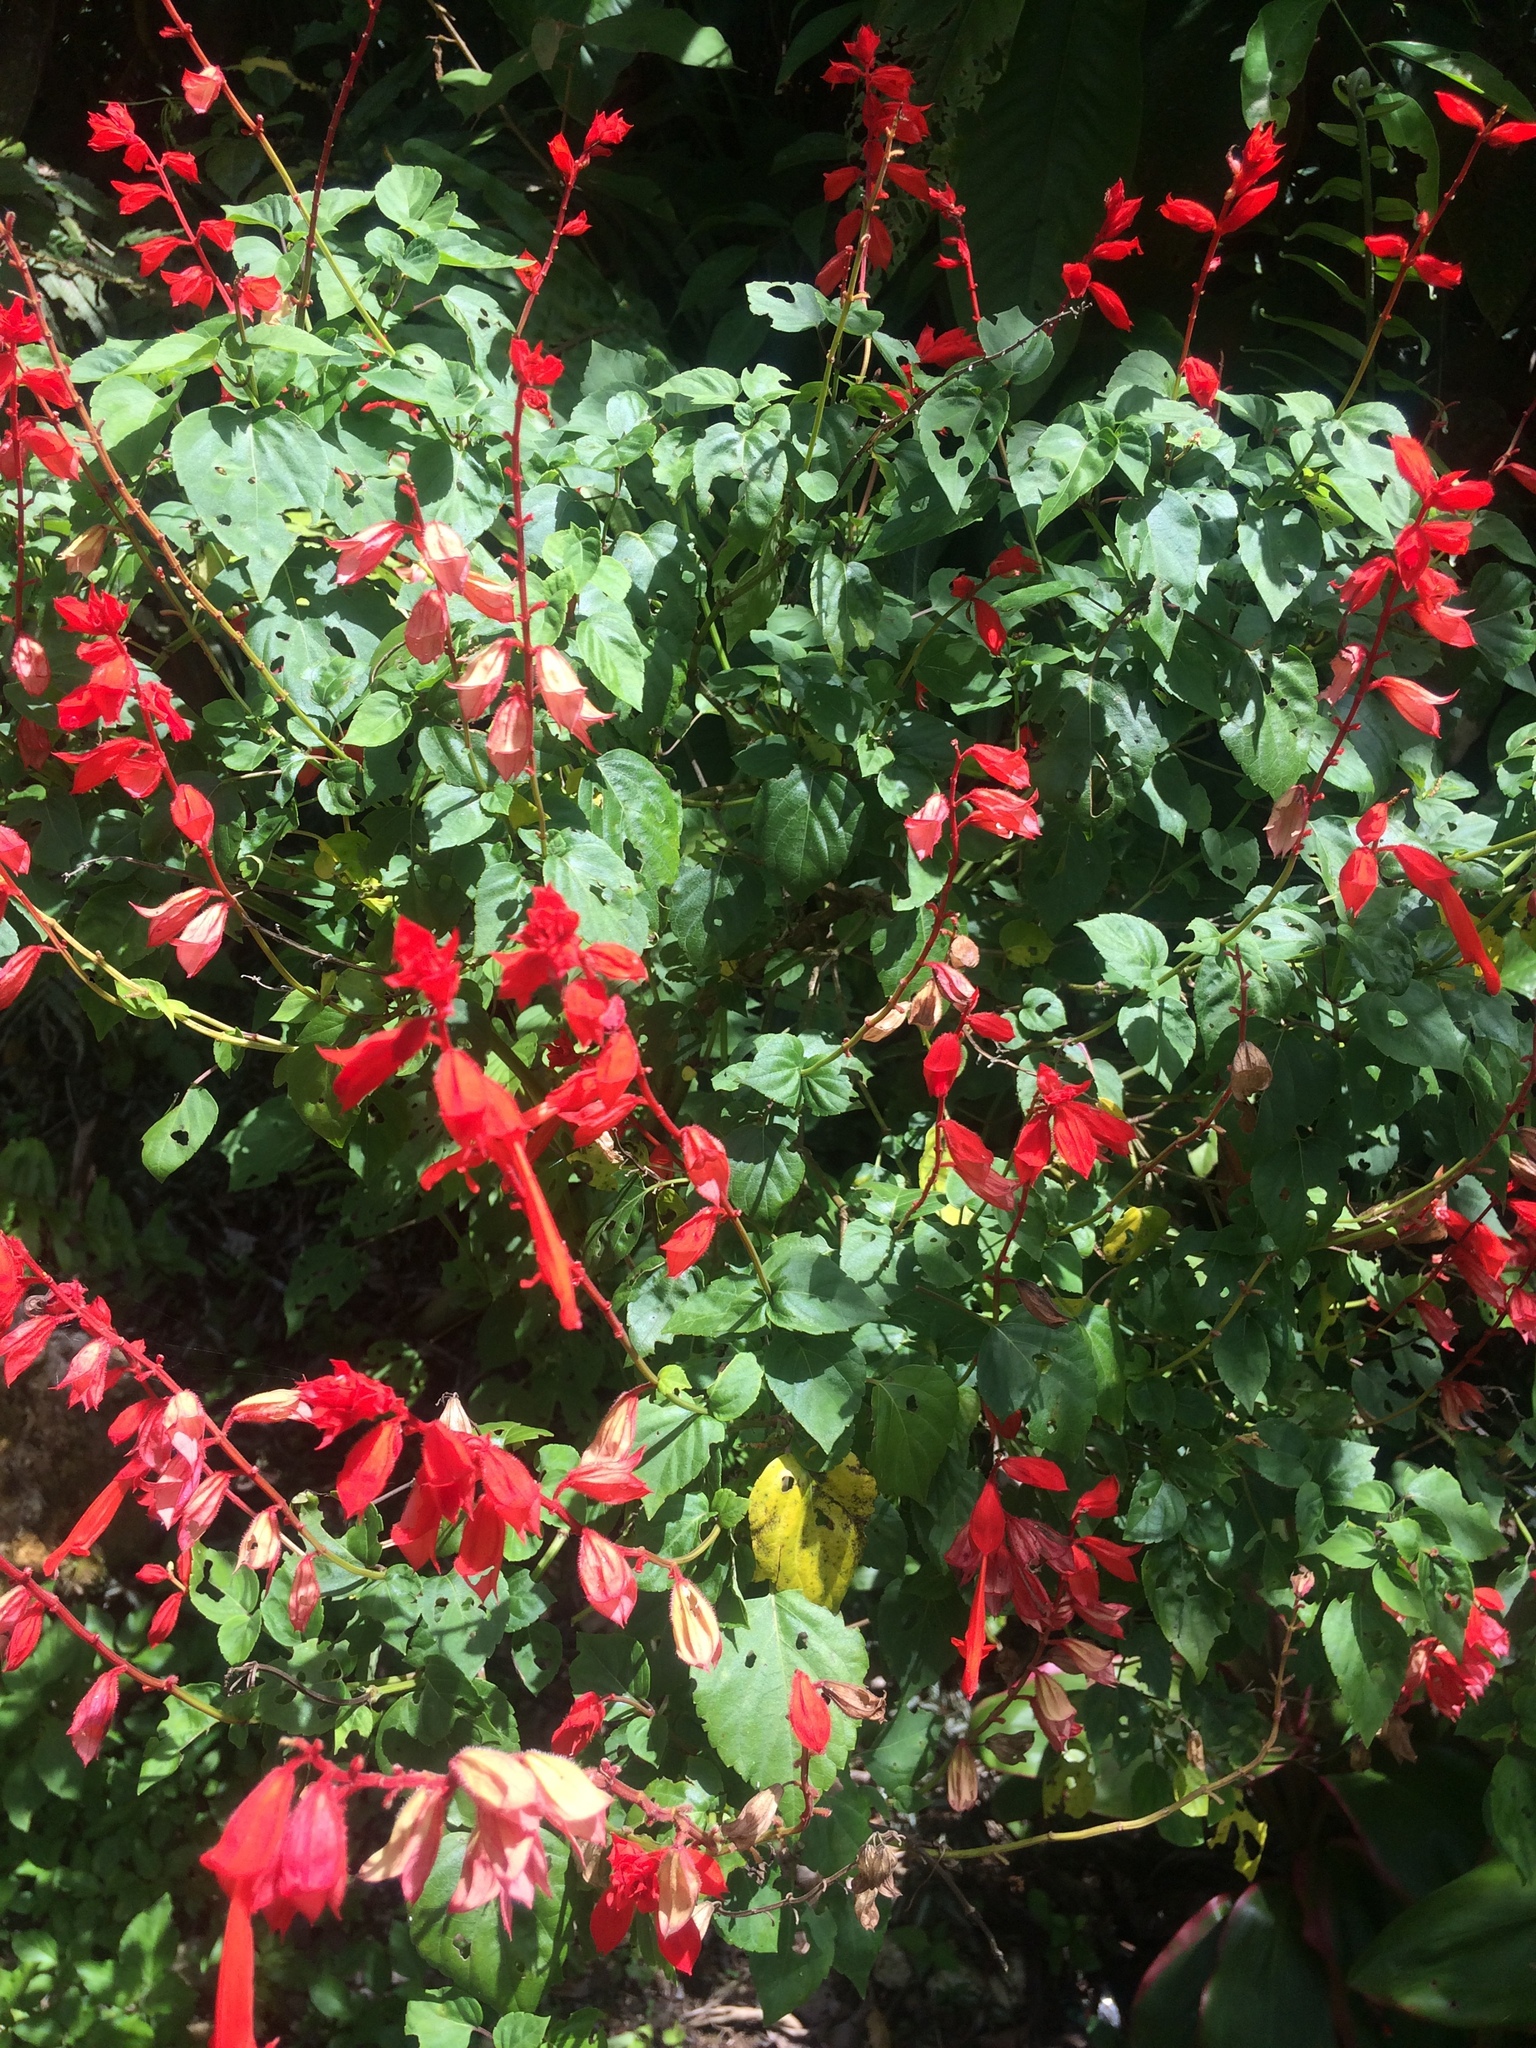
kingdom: Plantae
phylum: Tracheophyta
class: Magnoliopsida
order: Lamiales
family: Lamiaceae
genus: Salvia
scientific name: Salvia splendens
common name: Scarlet sage
